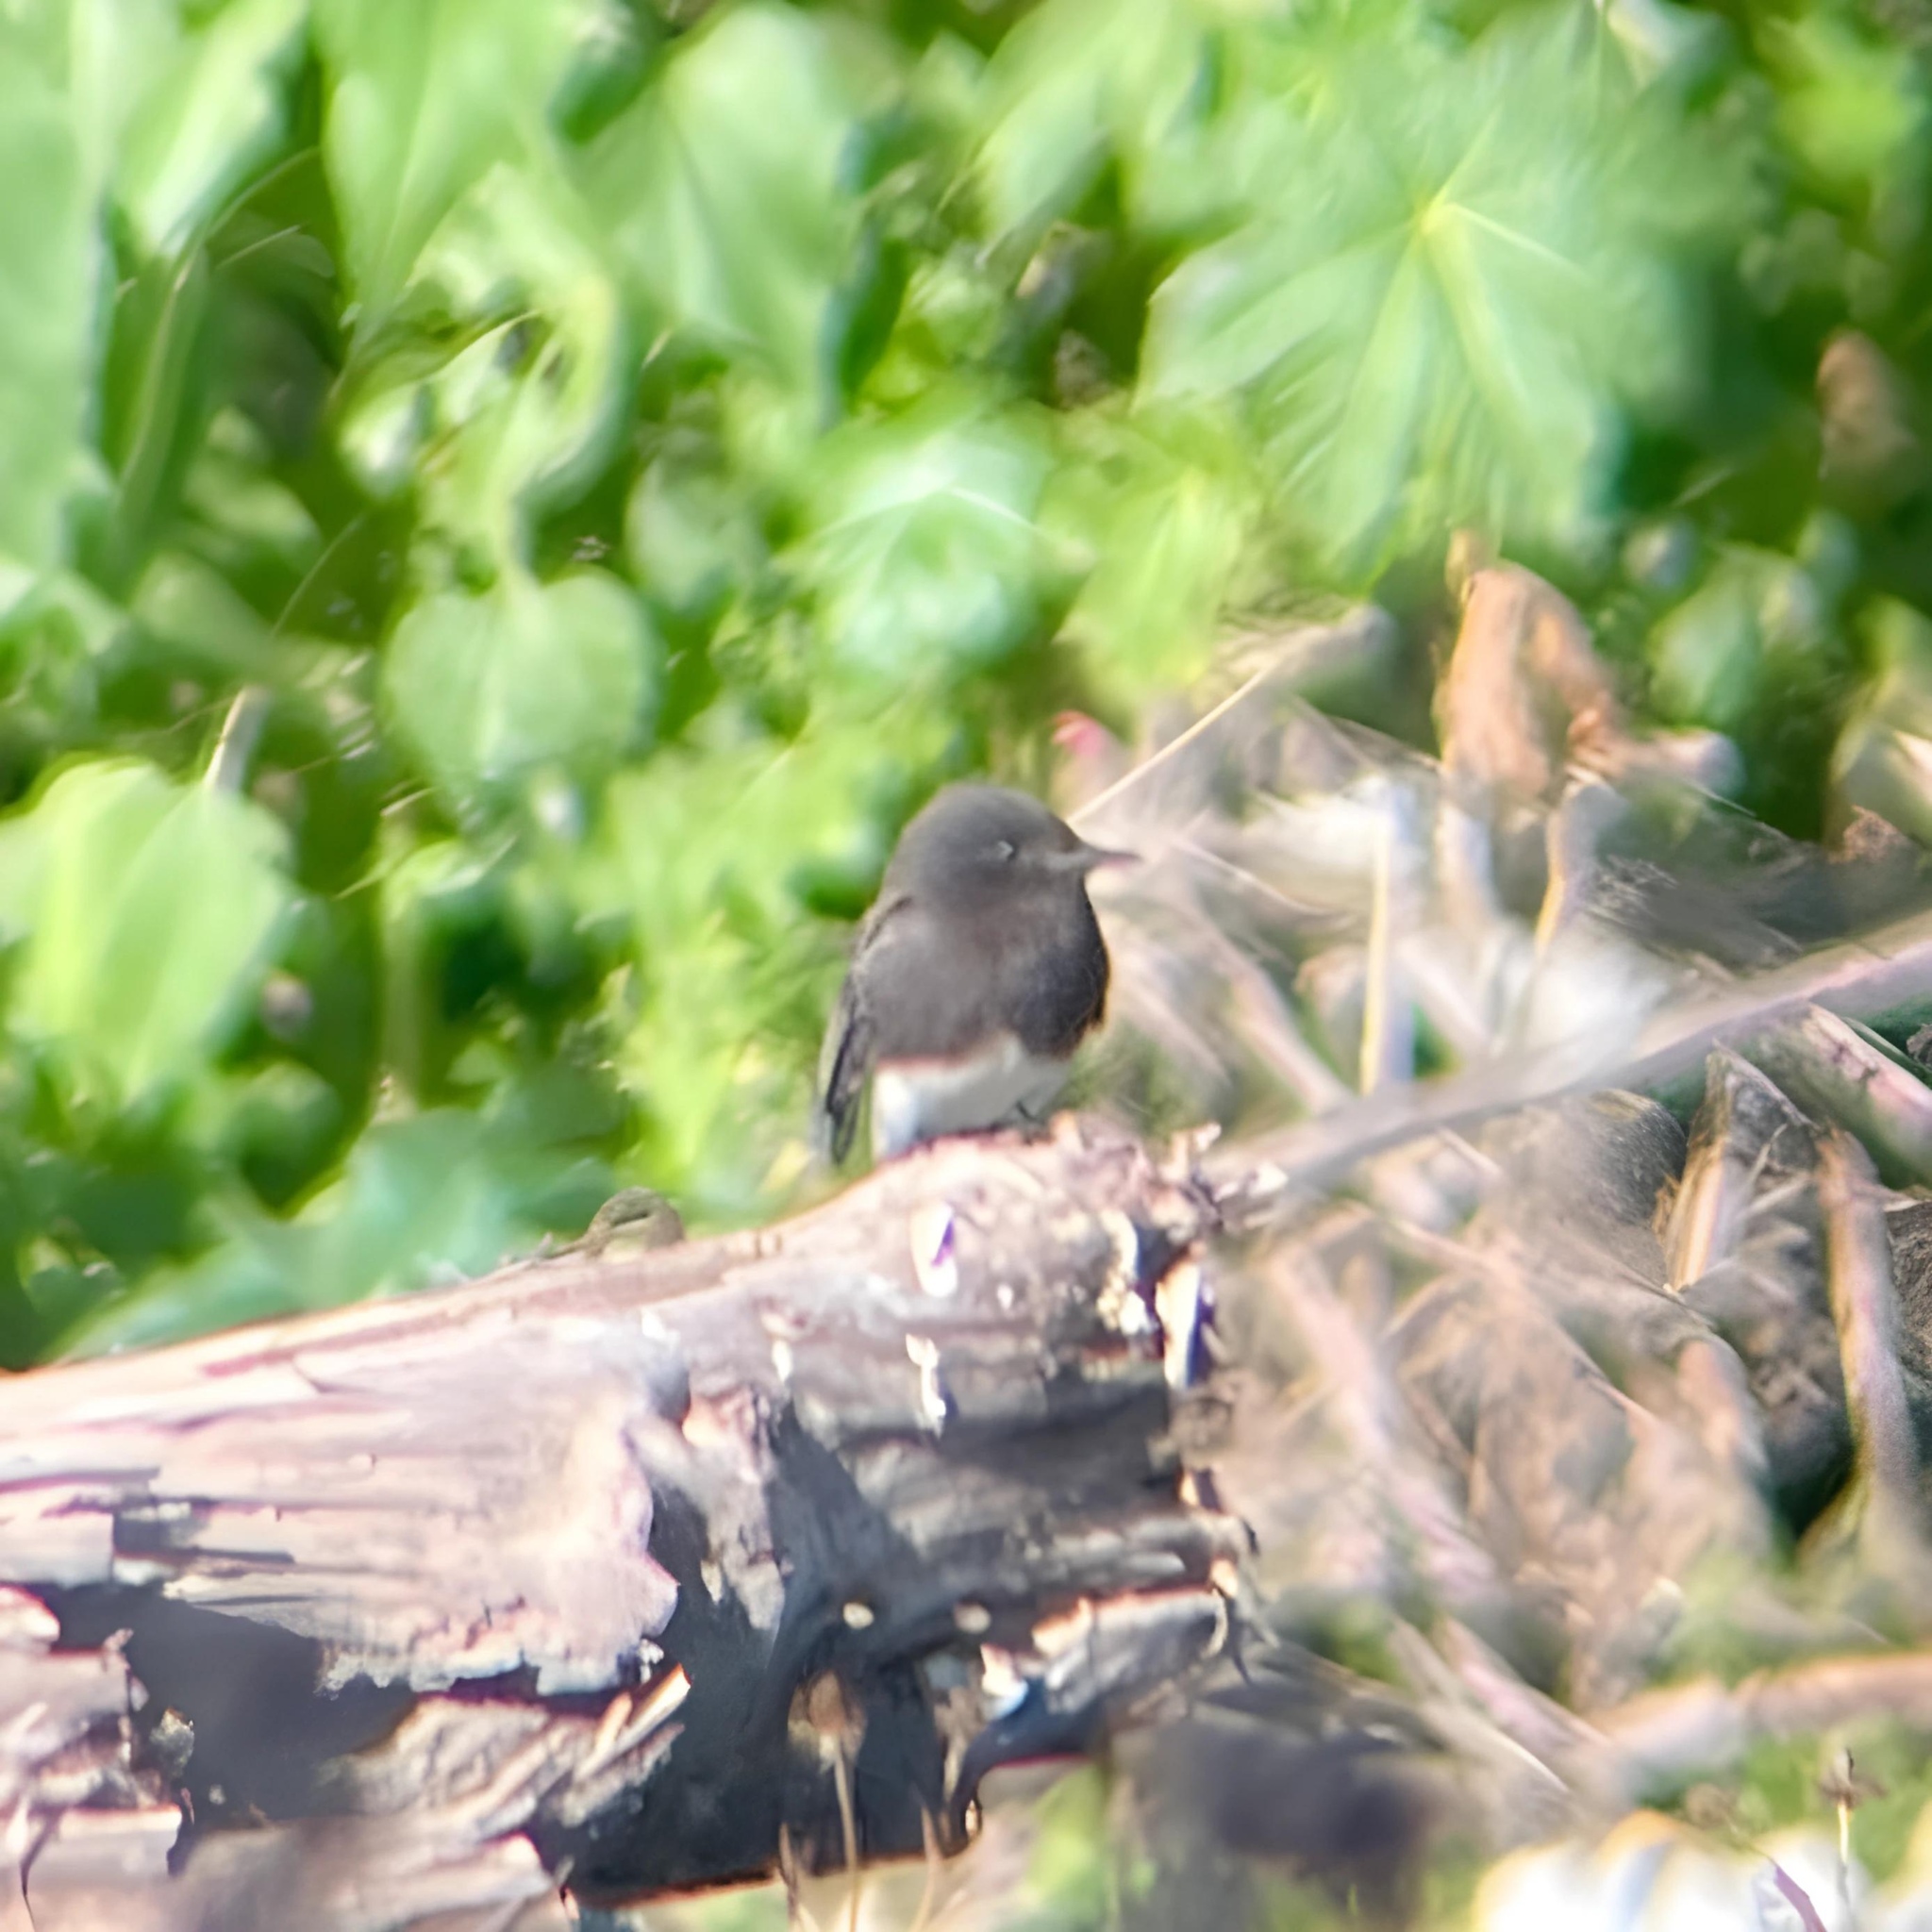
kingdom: Animalia
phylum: Chordata
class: Aves
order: Passeriformes
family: Tyrannidae
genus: Sayornis
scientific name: Sayornis nigricans
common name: Black phoebe
